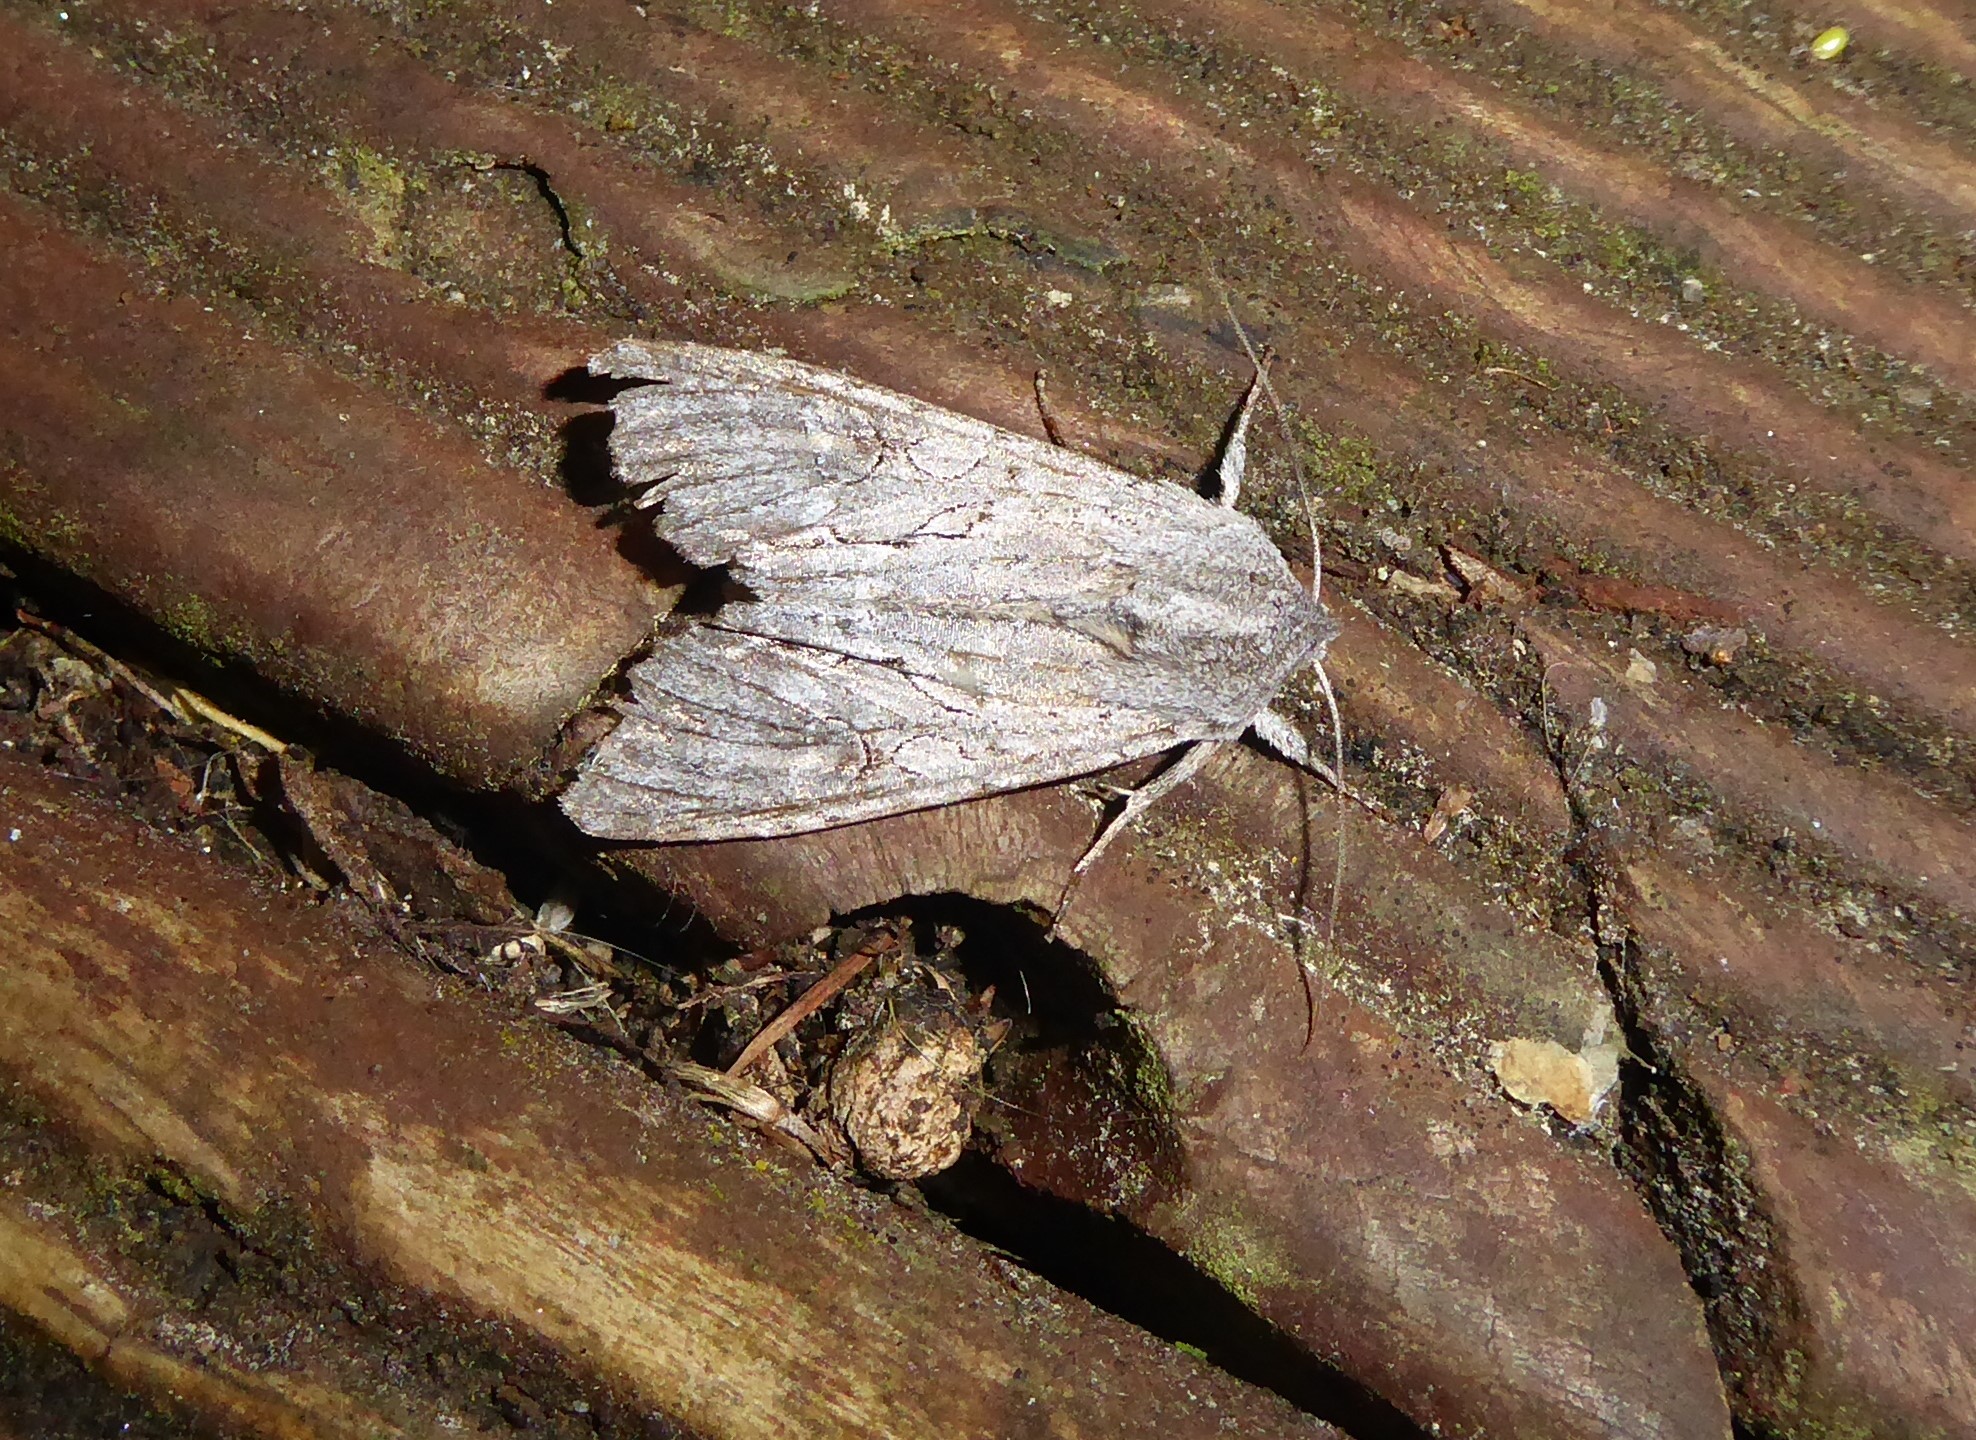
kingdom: Animalia
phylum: Arthropoda
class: Insecta
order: Lepidoptera
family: Noctuidae
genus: Ichneutica
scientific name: Ichneutica
